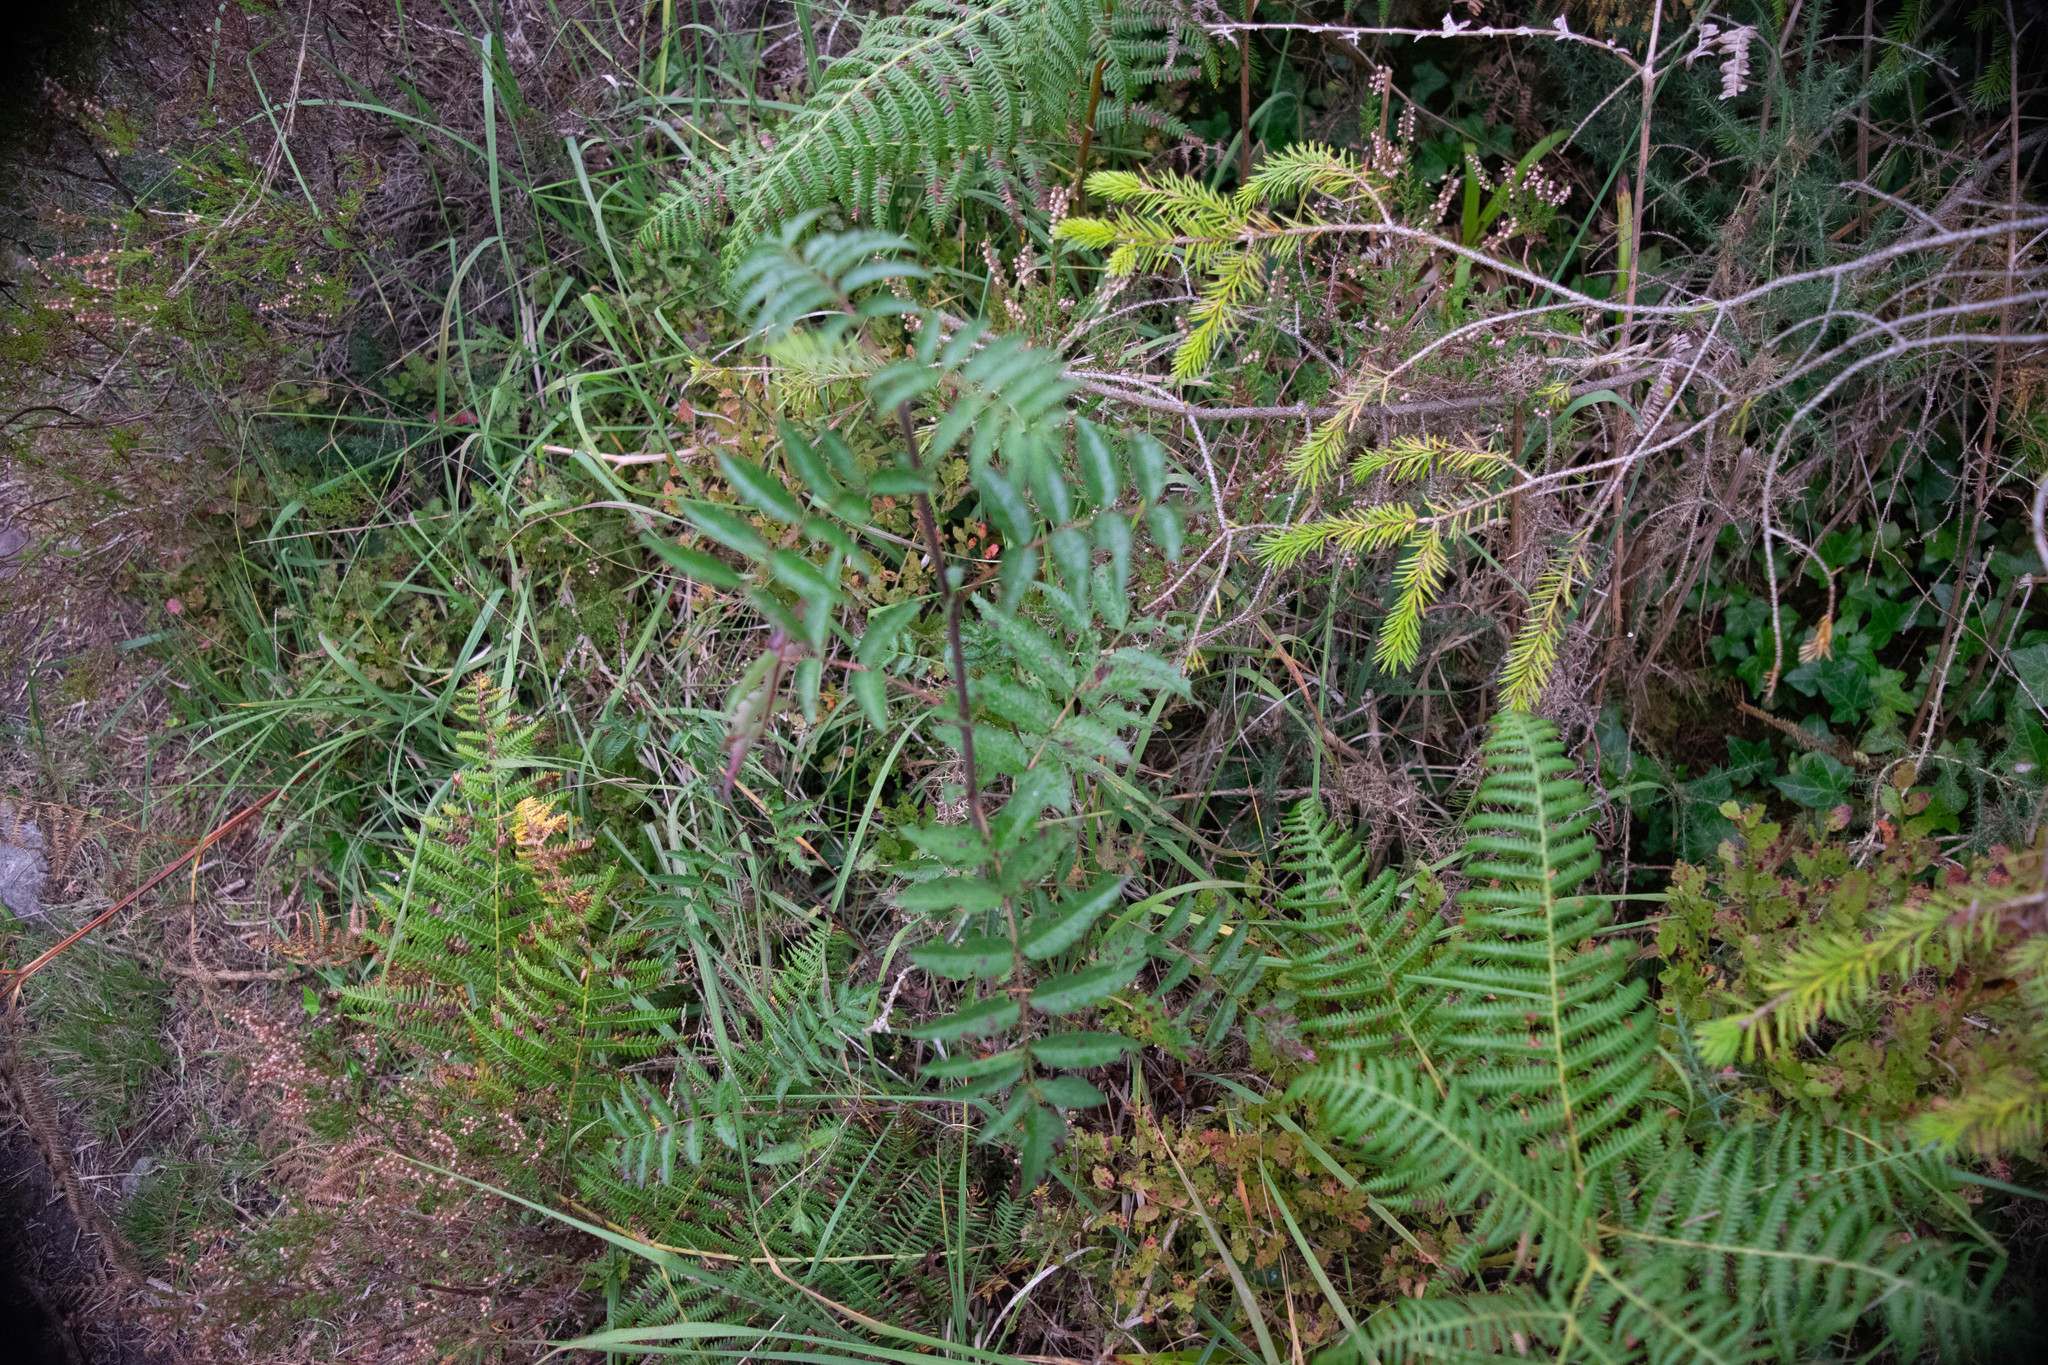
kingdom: Plantae
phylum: Tracheophyta
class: Magnoliopsida
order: Rosales
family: Rosaceae
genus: Sorbus
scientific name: Sorbus aucuparia
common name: Rowan
